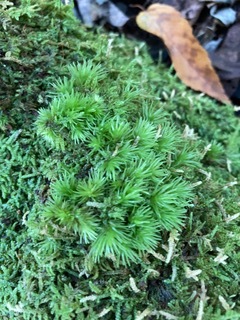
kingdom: Plantae
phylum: Bryophyta
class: Bryopsida
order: Dicranales
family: Leucobryaceae
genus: Leucobryum
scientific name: Leucobryum glaucum
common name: Large white-moss
